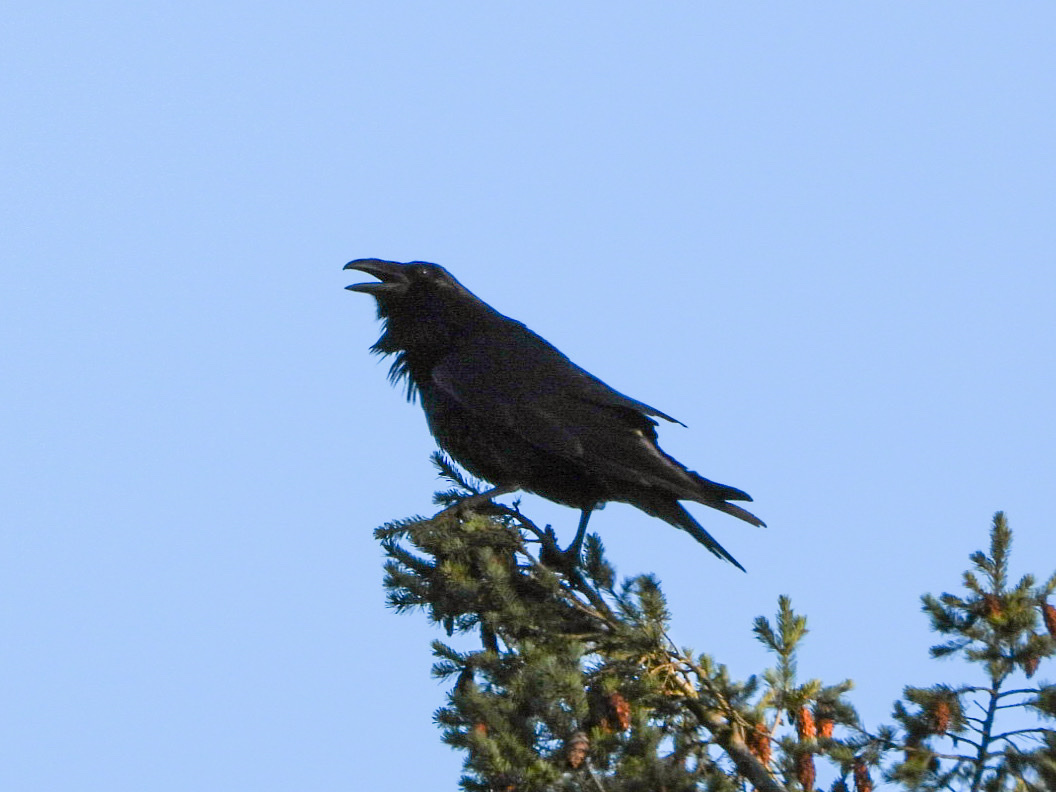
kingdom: Animalia
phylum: Chordata
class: Aves
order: Passeriformes
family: Corvidae
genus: Corvus
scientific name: Corvus corax
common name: Common raven
